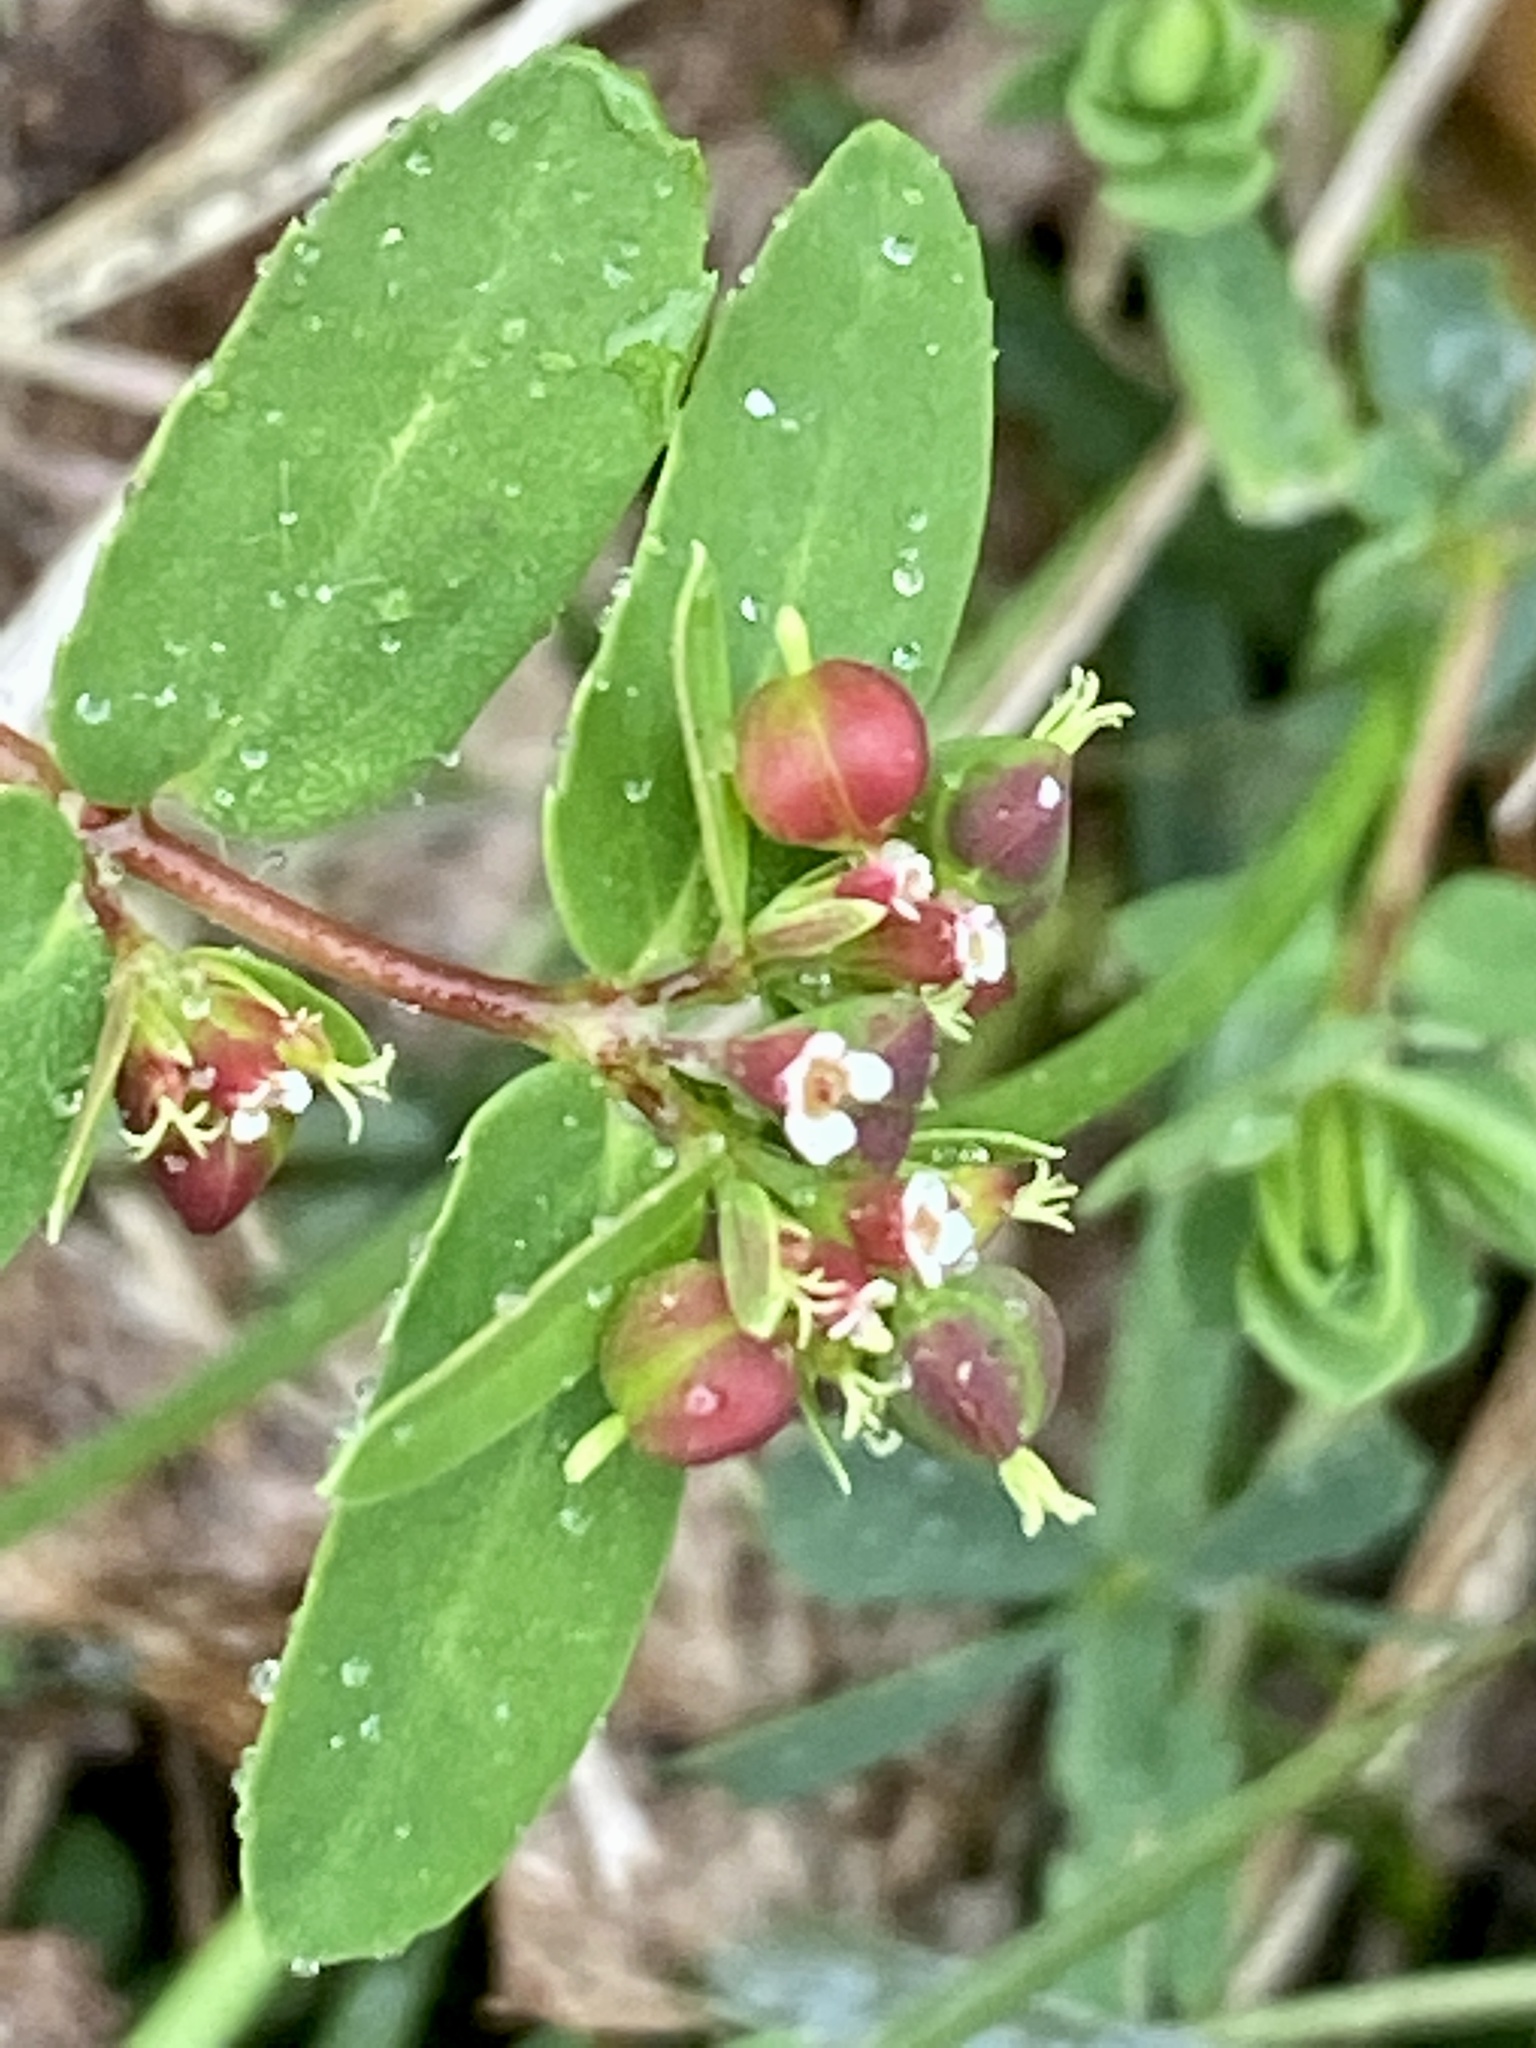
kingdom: Plantae
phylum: Tracheophyta
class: Magnoliopsida
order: Malpighiales
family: Euphorbiaceae
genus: Euphorbia
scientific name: Euphorbia nutans
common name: Eyebane
